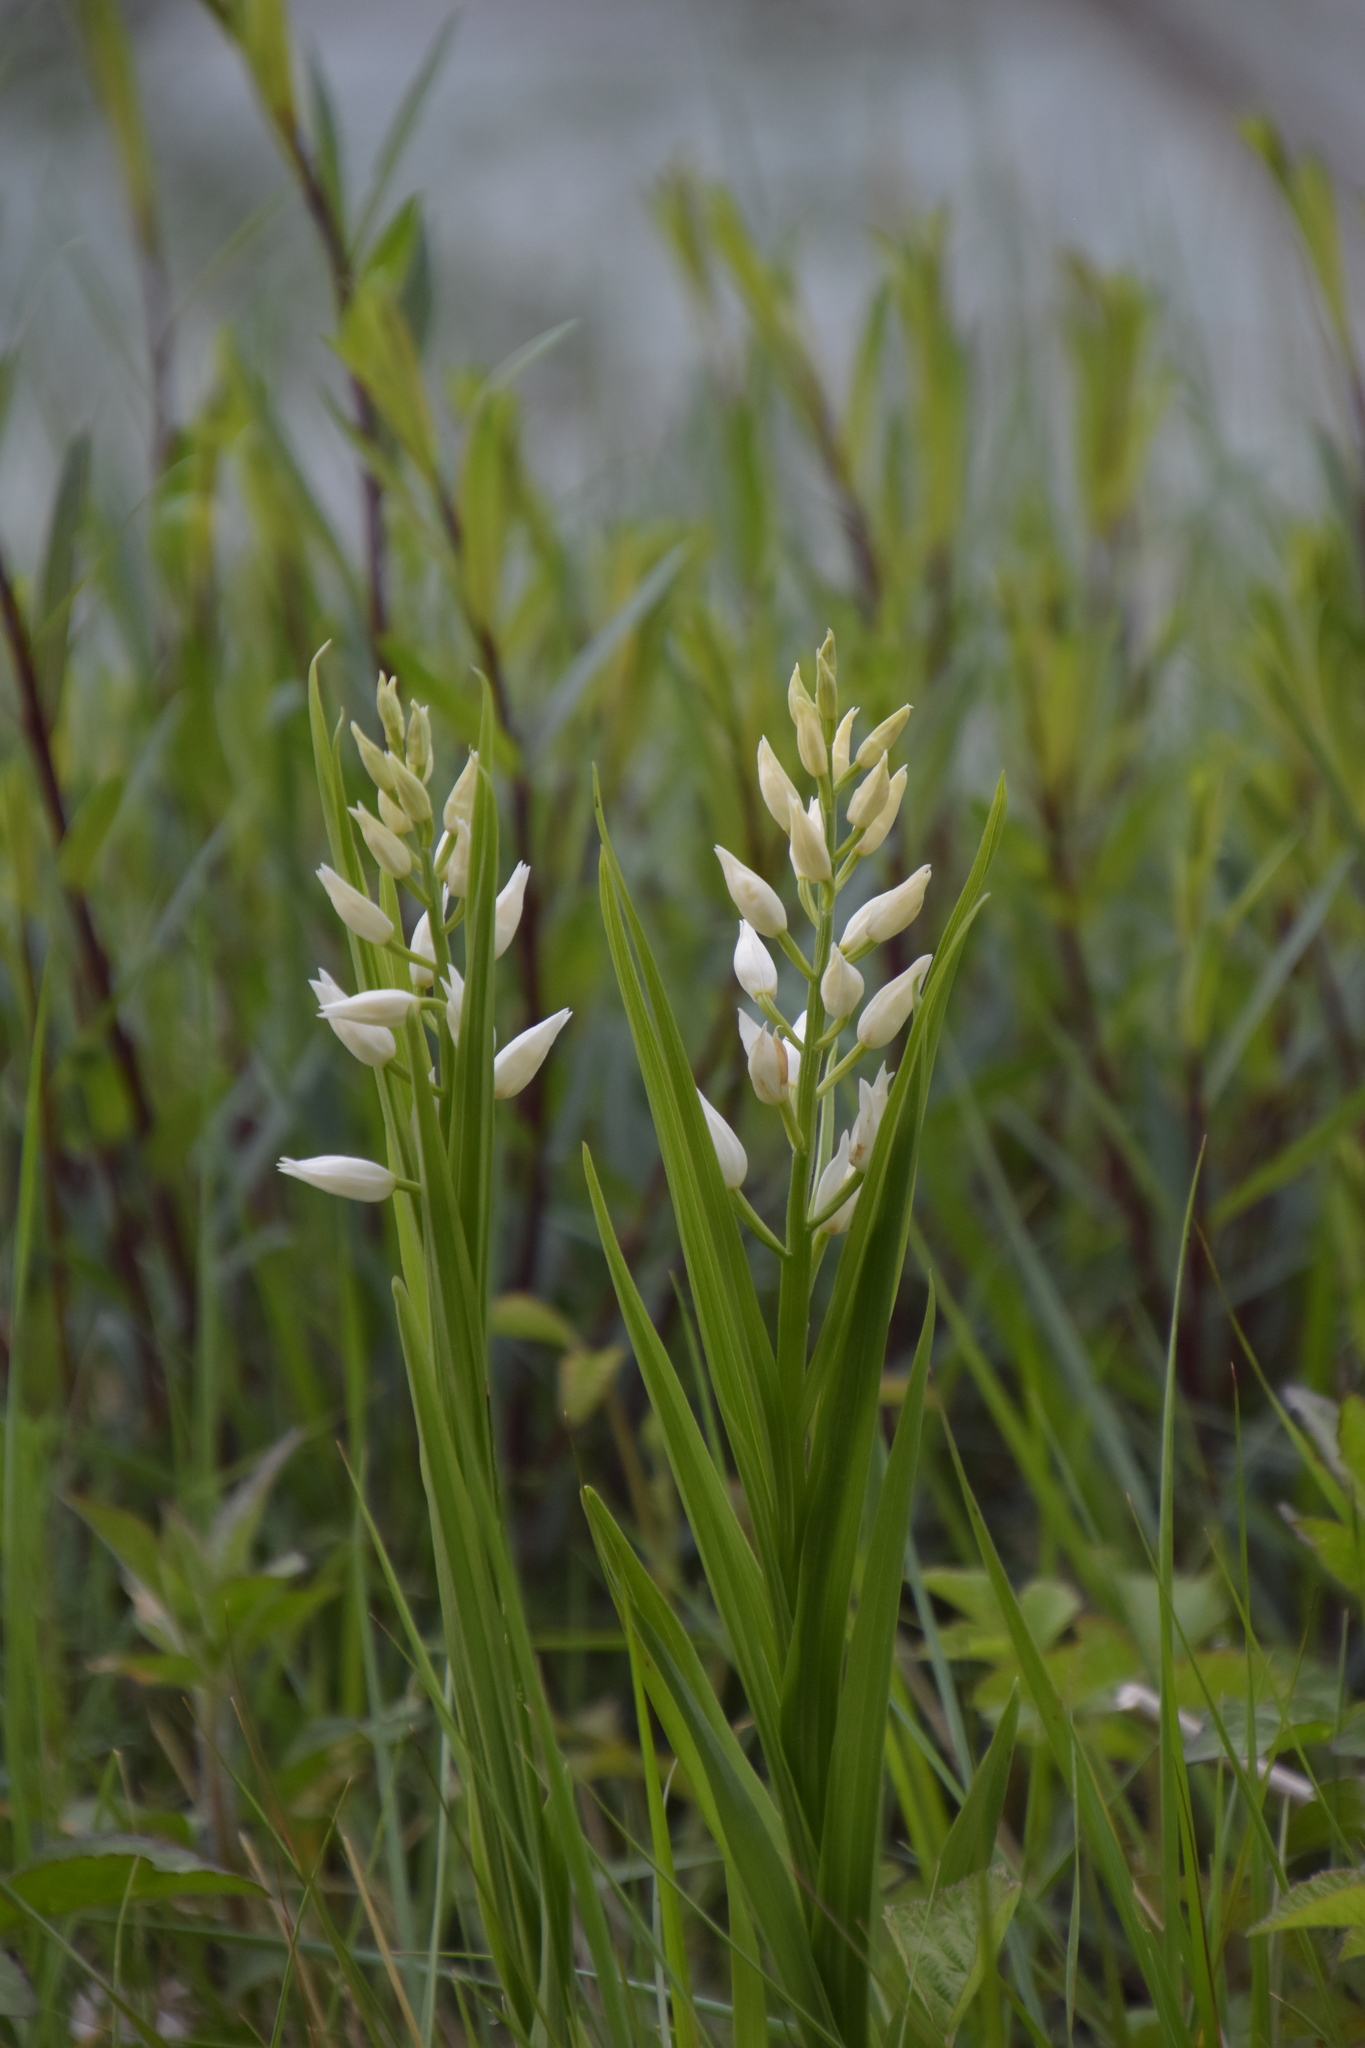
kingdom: Plantae
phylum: Tracheophyta
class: Liliopsida
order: Asparagales
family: Orchidaceae
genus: Cephalanthera
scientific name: Cephalanthera longifolia
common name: Narrow-leaved helleborine
